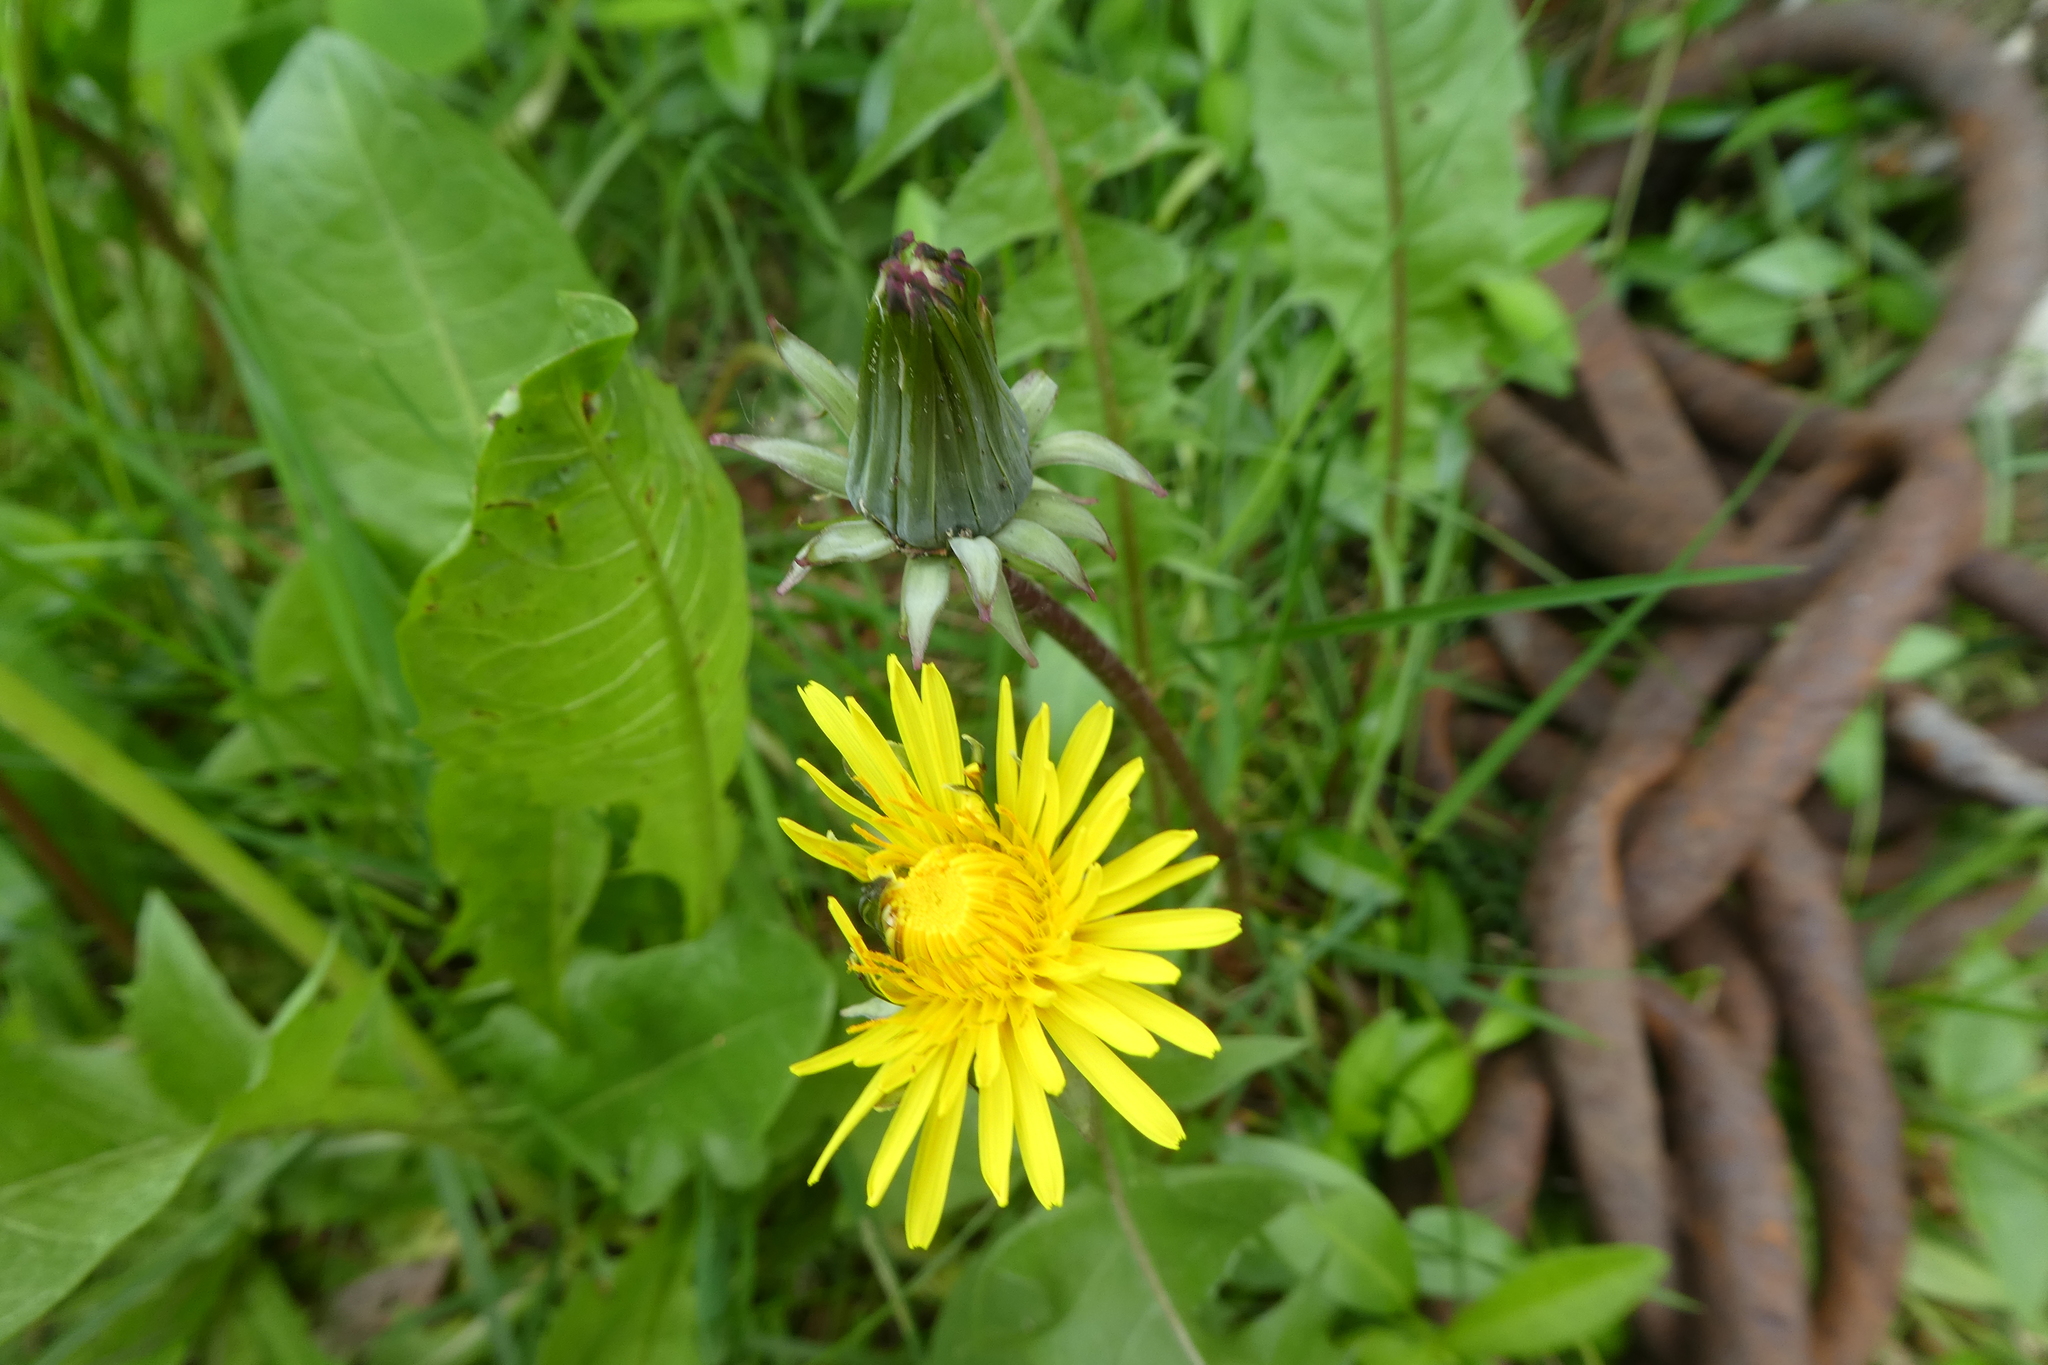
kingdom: Plantae
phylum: Tracheophyta
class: Magnoliopsida
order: Asterales
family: Asteraceae
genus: Taraxacum
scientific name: Taraxacum
